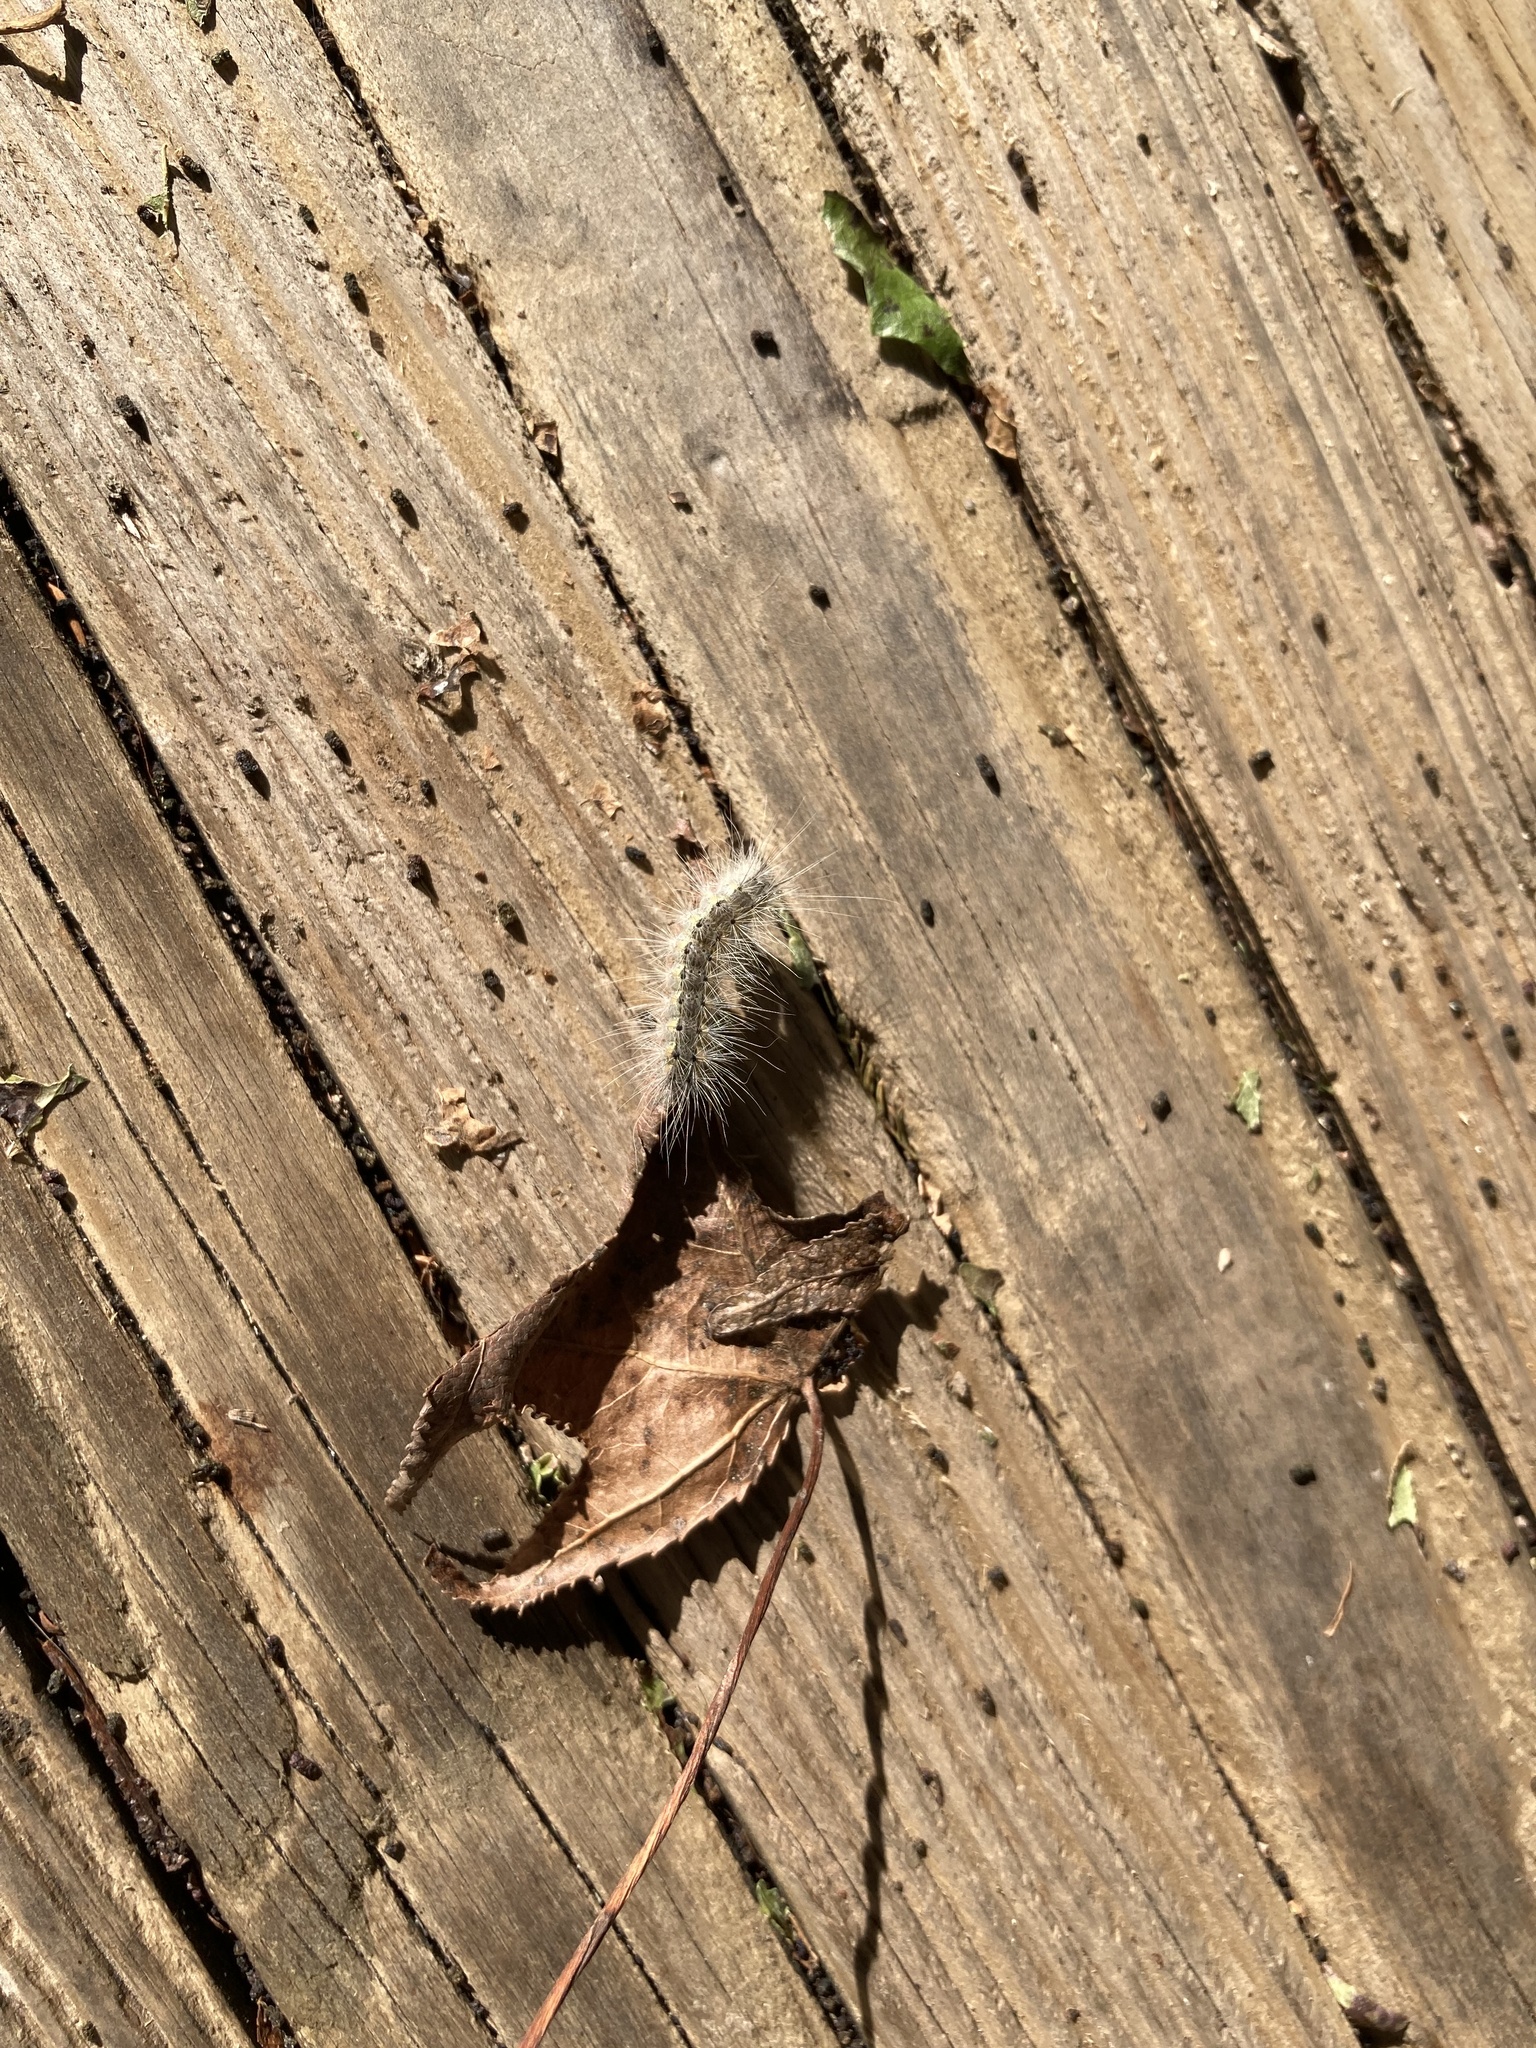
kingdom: Animalia
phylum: Arthropoda
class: Insecta
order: Lepidoptera
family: Erebidae
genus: Hyphantria
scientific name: Hyphantria cunea
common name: American white moth
